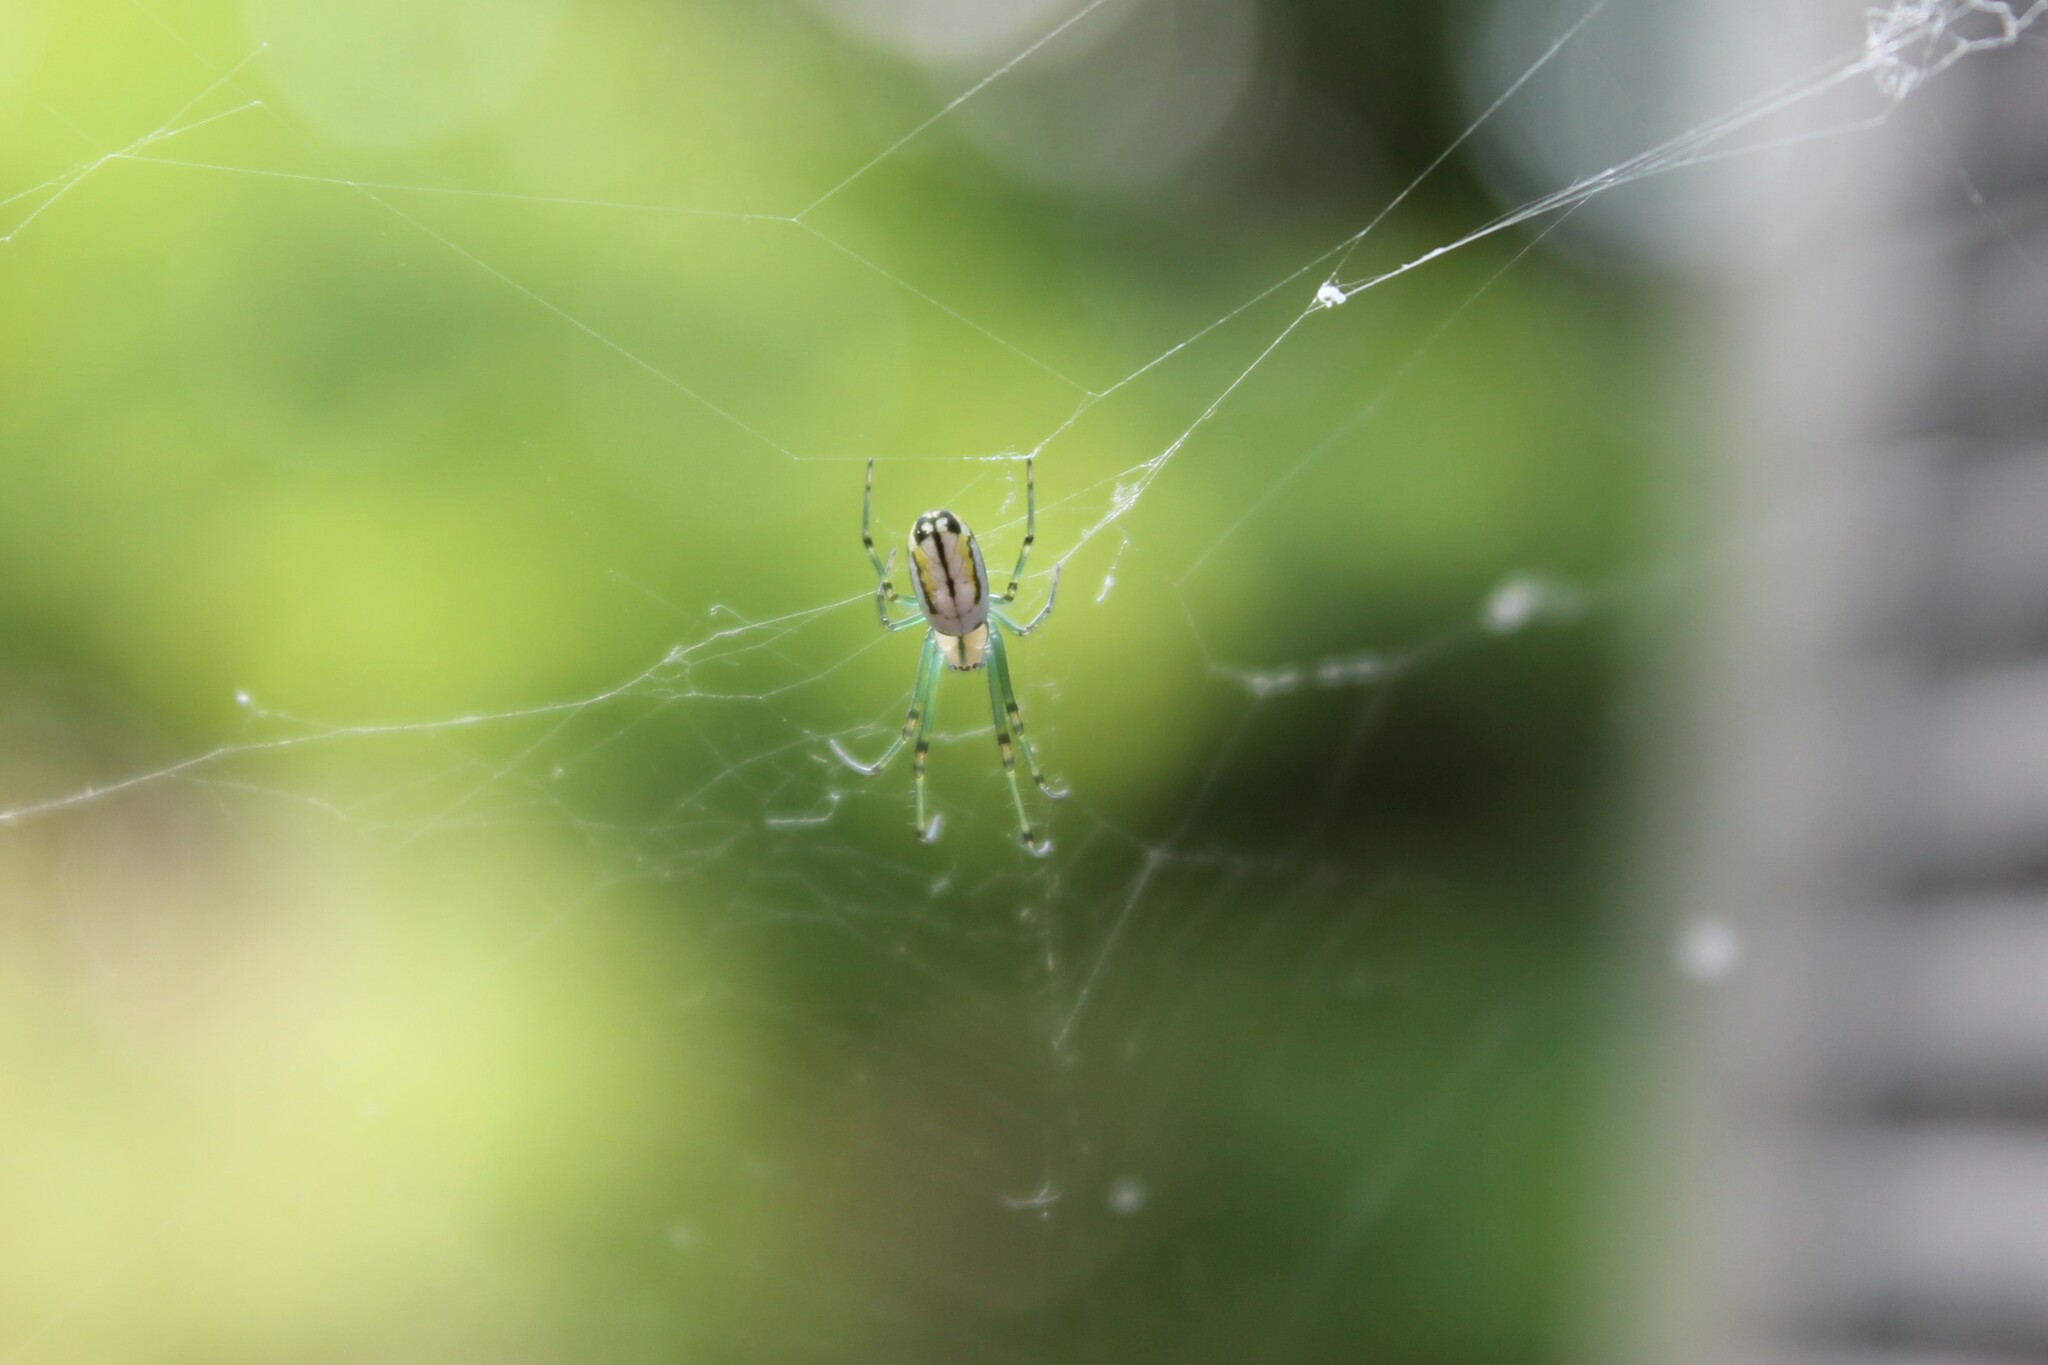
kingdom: Animalia
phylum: Arthropoda
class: Arachnida
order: Araneae
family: Tetragnathidae
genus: Leucauge
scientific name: Leucauge venusta
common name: Longjawed orb weavers
